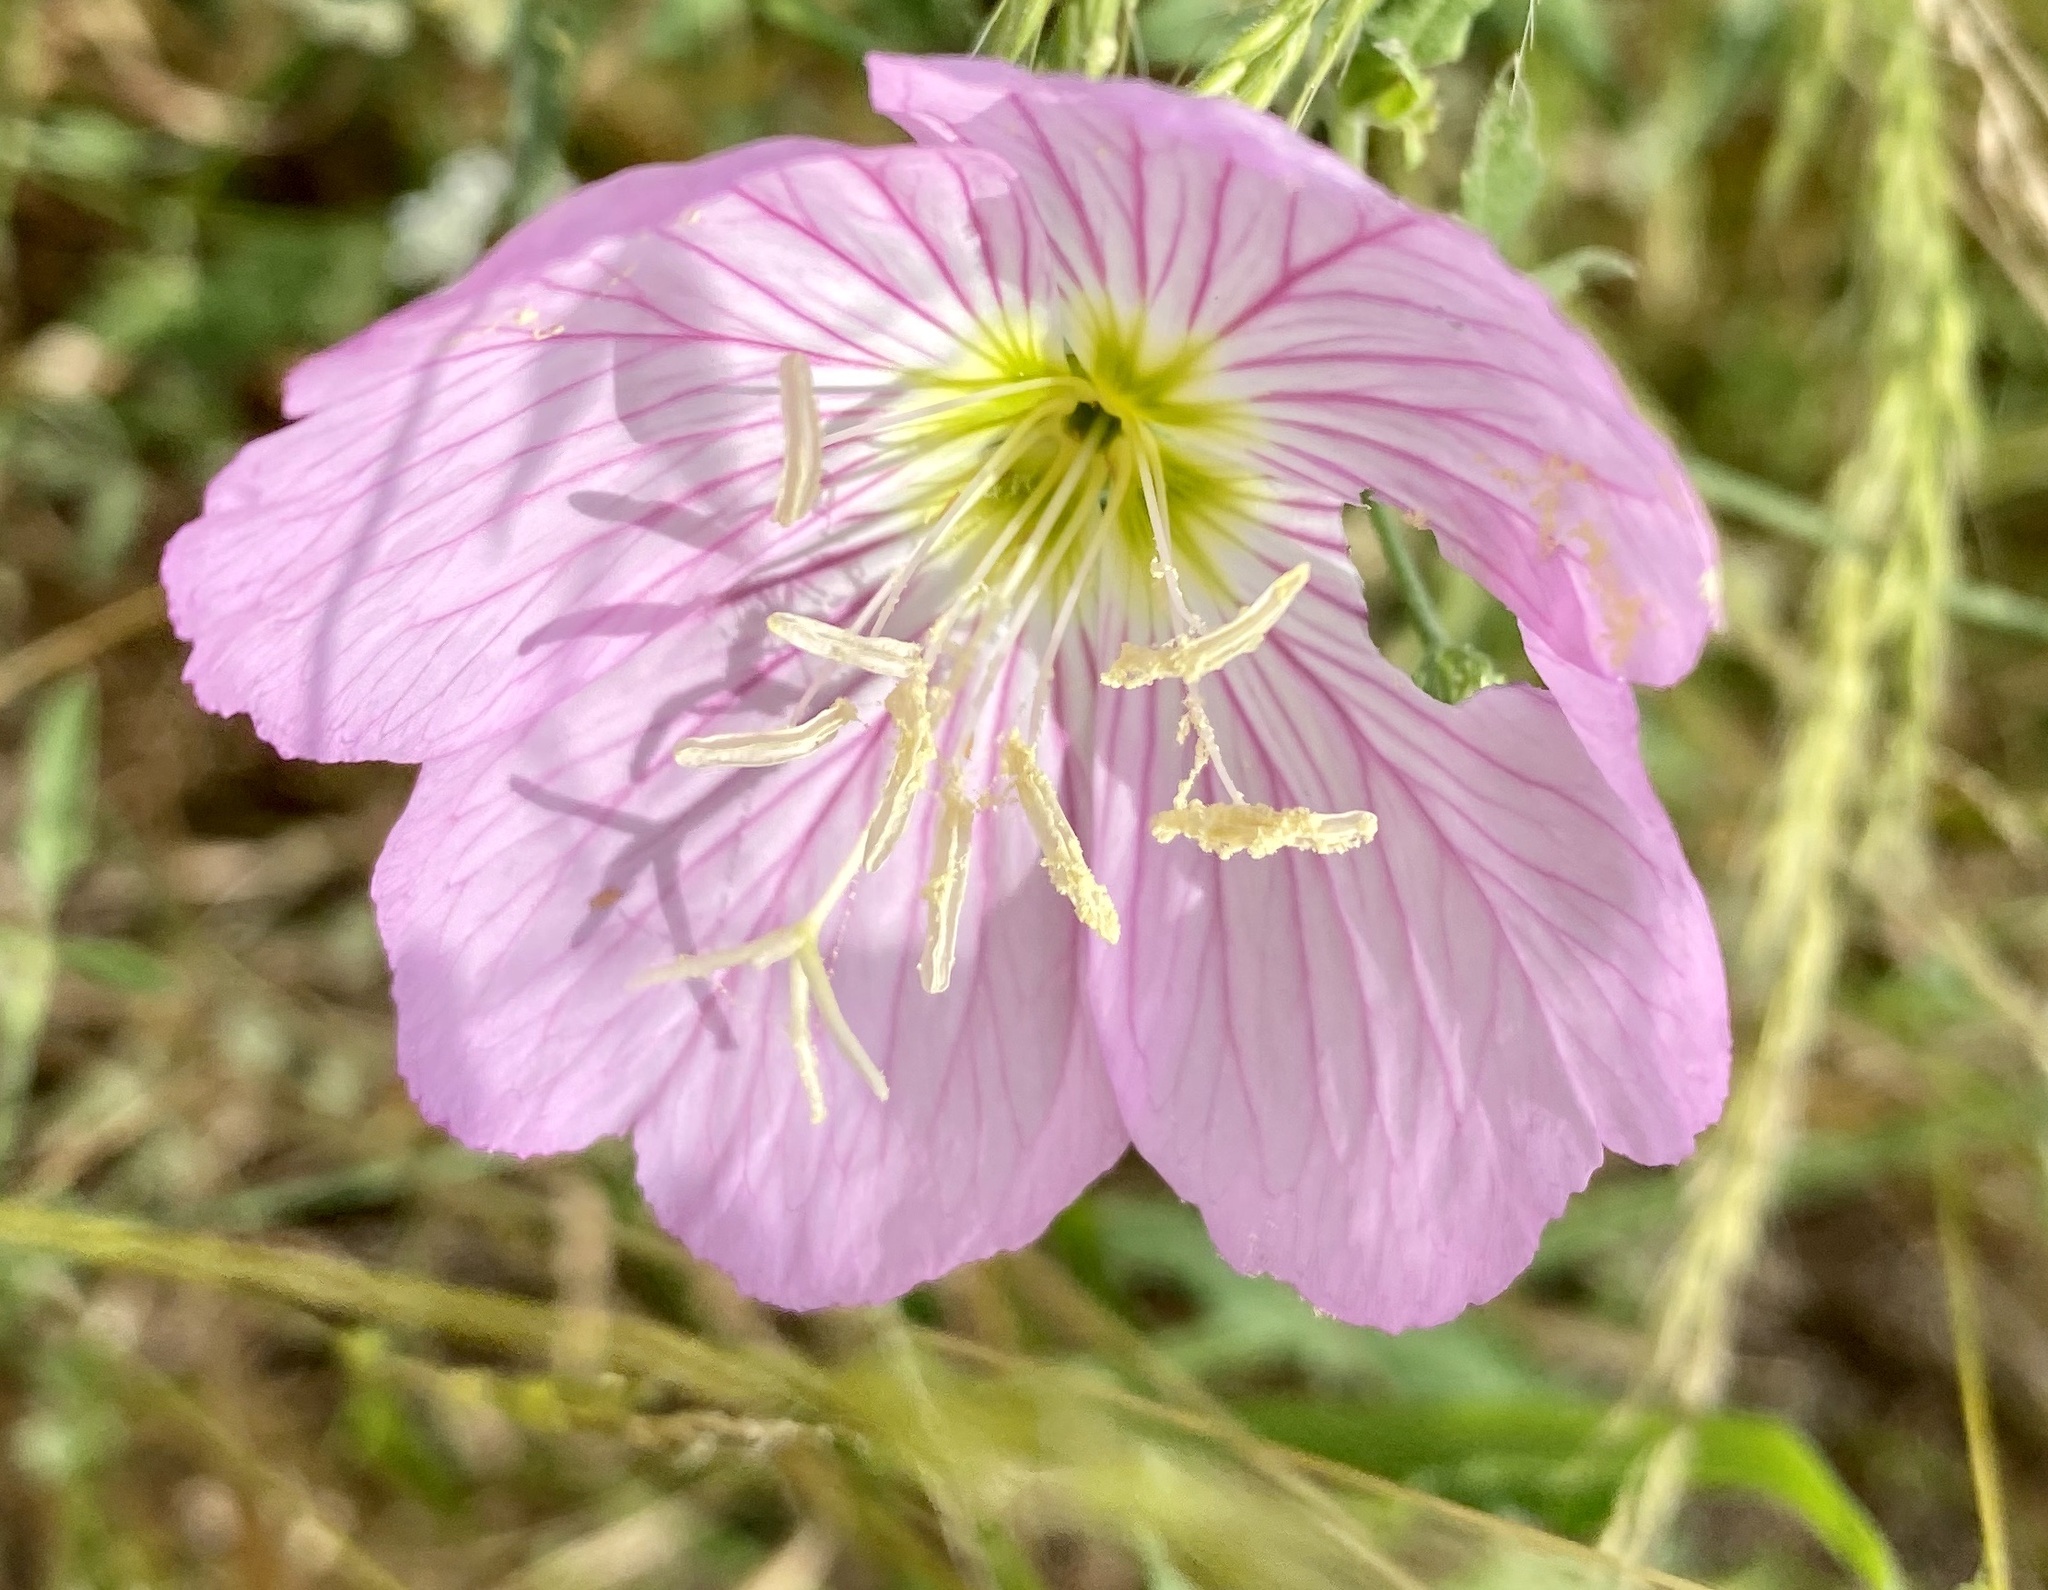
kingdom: Plantae
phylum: Tracheophyta
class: Magnoliopsida
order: Myrtales
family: Onagraceae
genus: Oenothera
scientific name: Oenothera speciosa
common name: White evening-primrose
